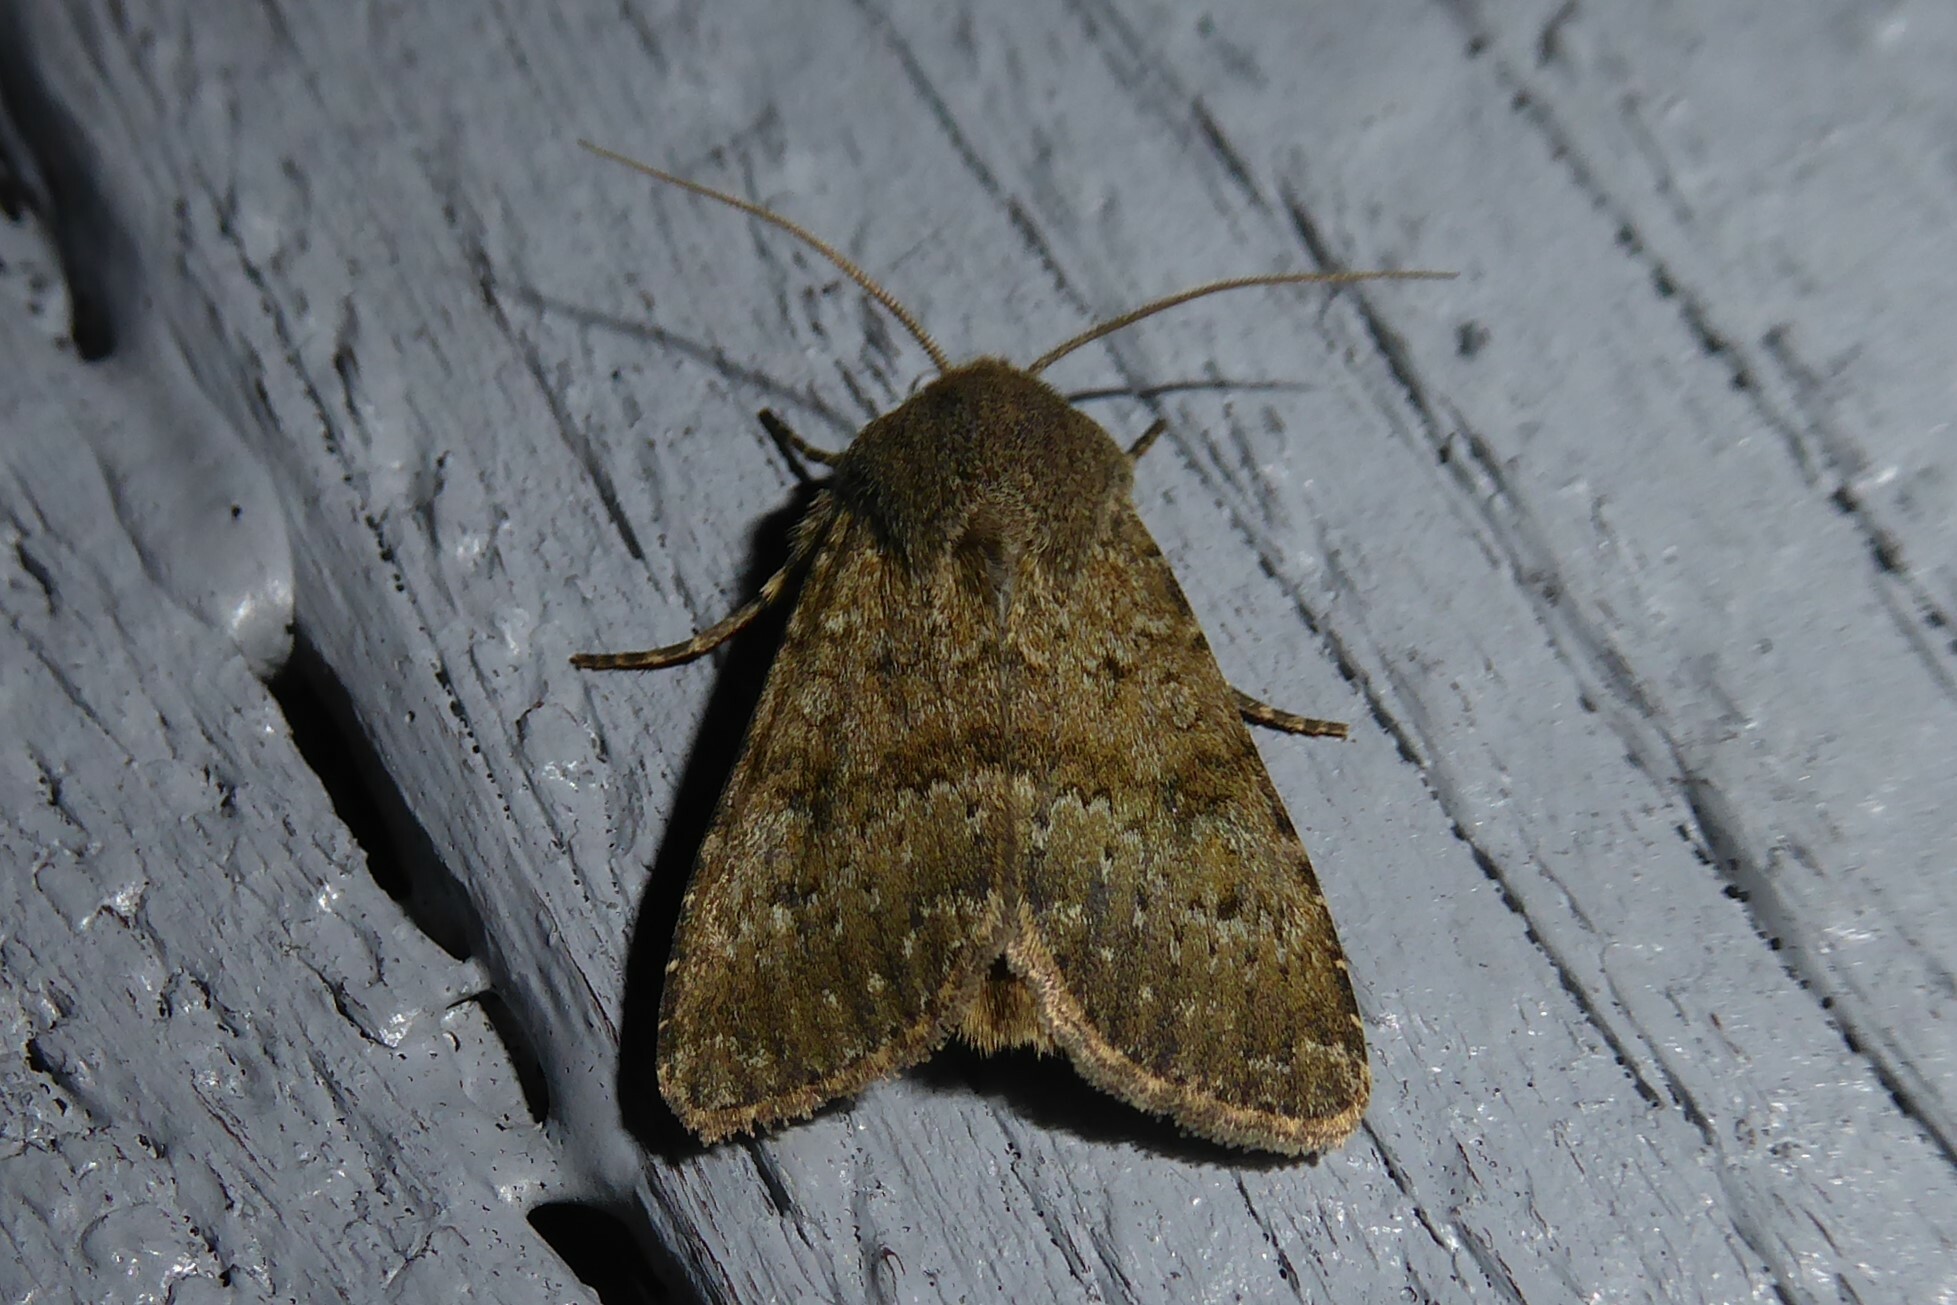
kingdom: Animalia
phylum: Arthropoda
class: Insecta
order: Lepidoptera
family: Noctuidae
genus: Ichneutica
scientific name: Ichneutica moderata
